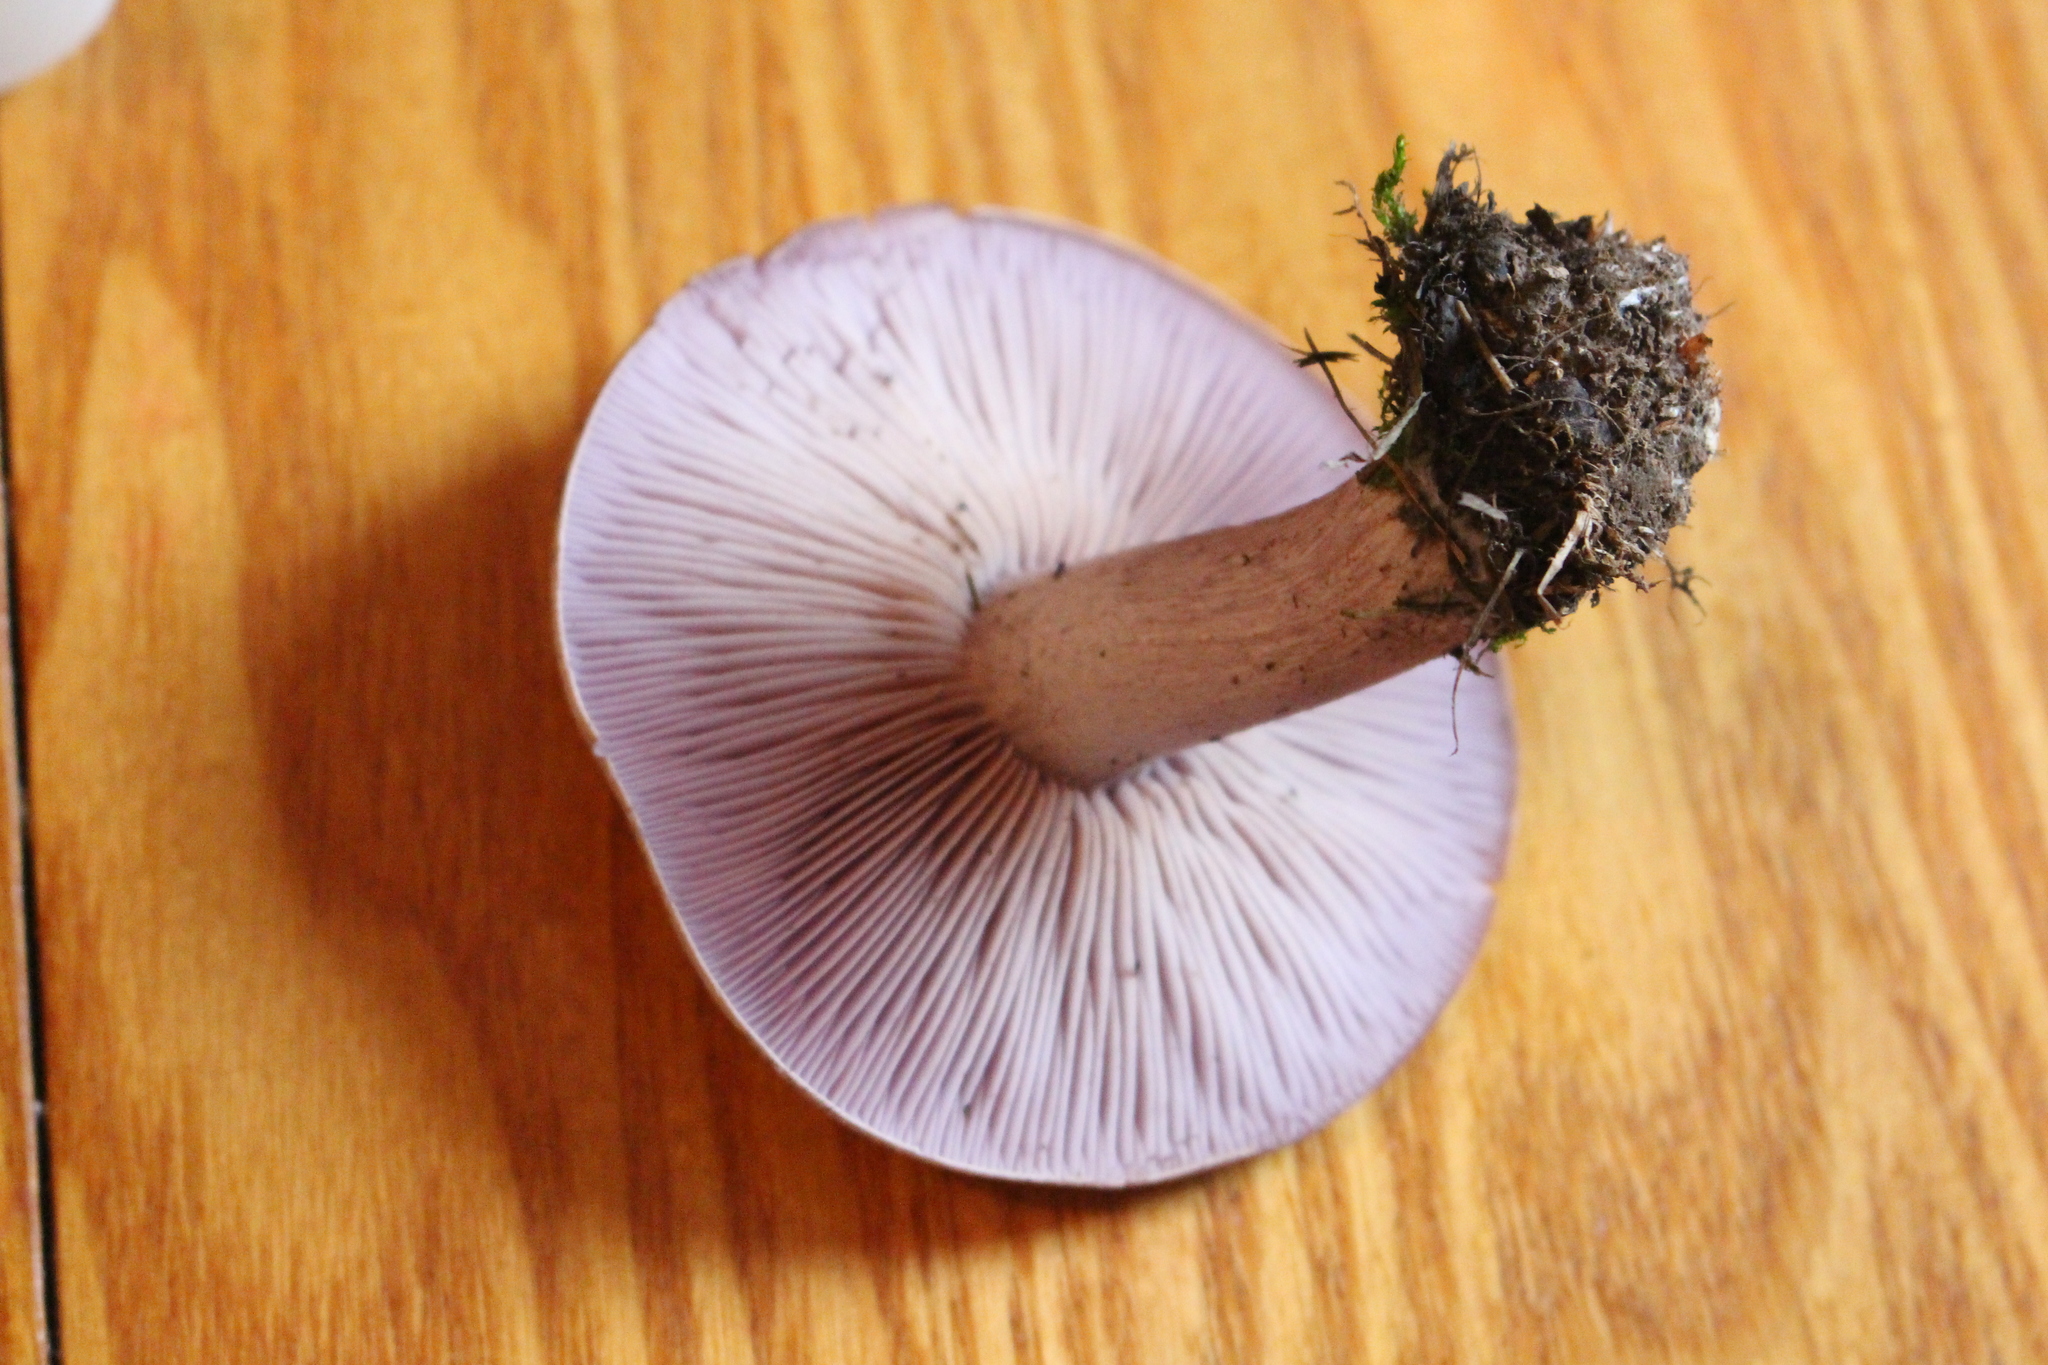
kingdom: Fungi
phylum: Basidiomycota
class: Agaricomycetes
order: Agaricales
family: Tricholomataceae
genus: Collybia
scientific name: Collybia
